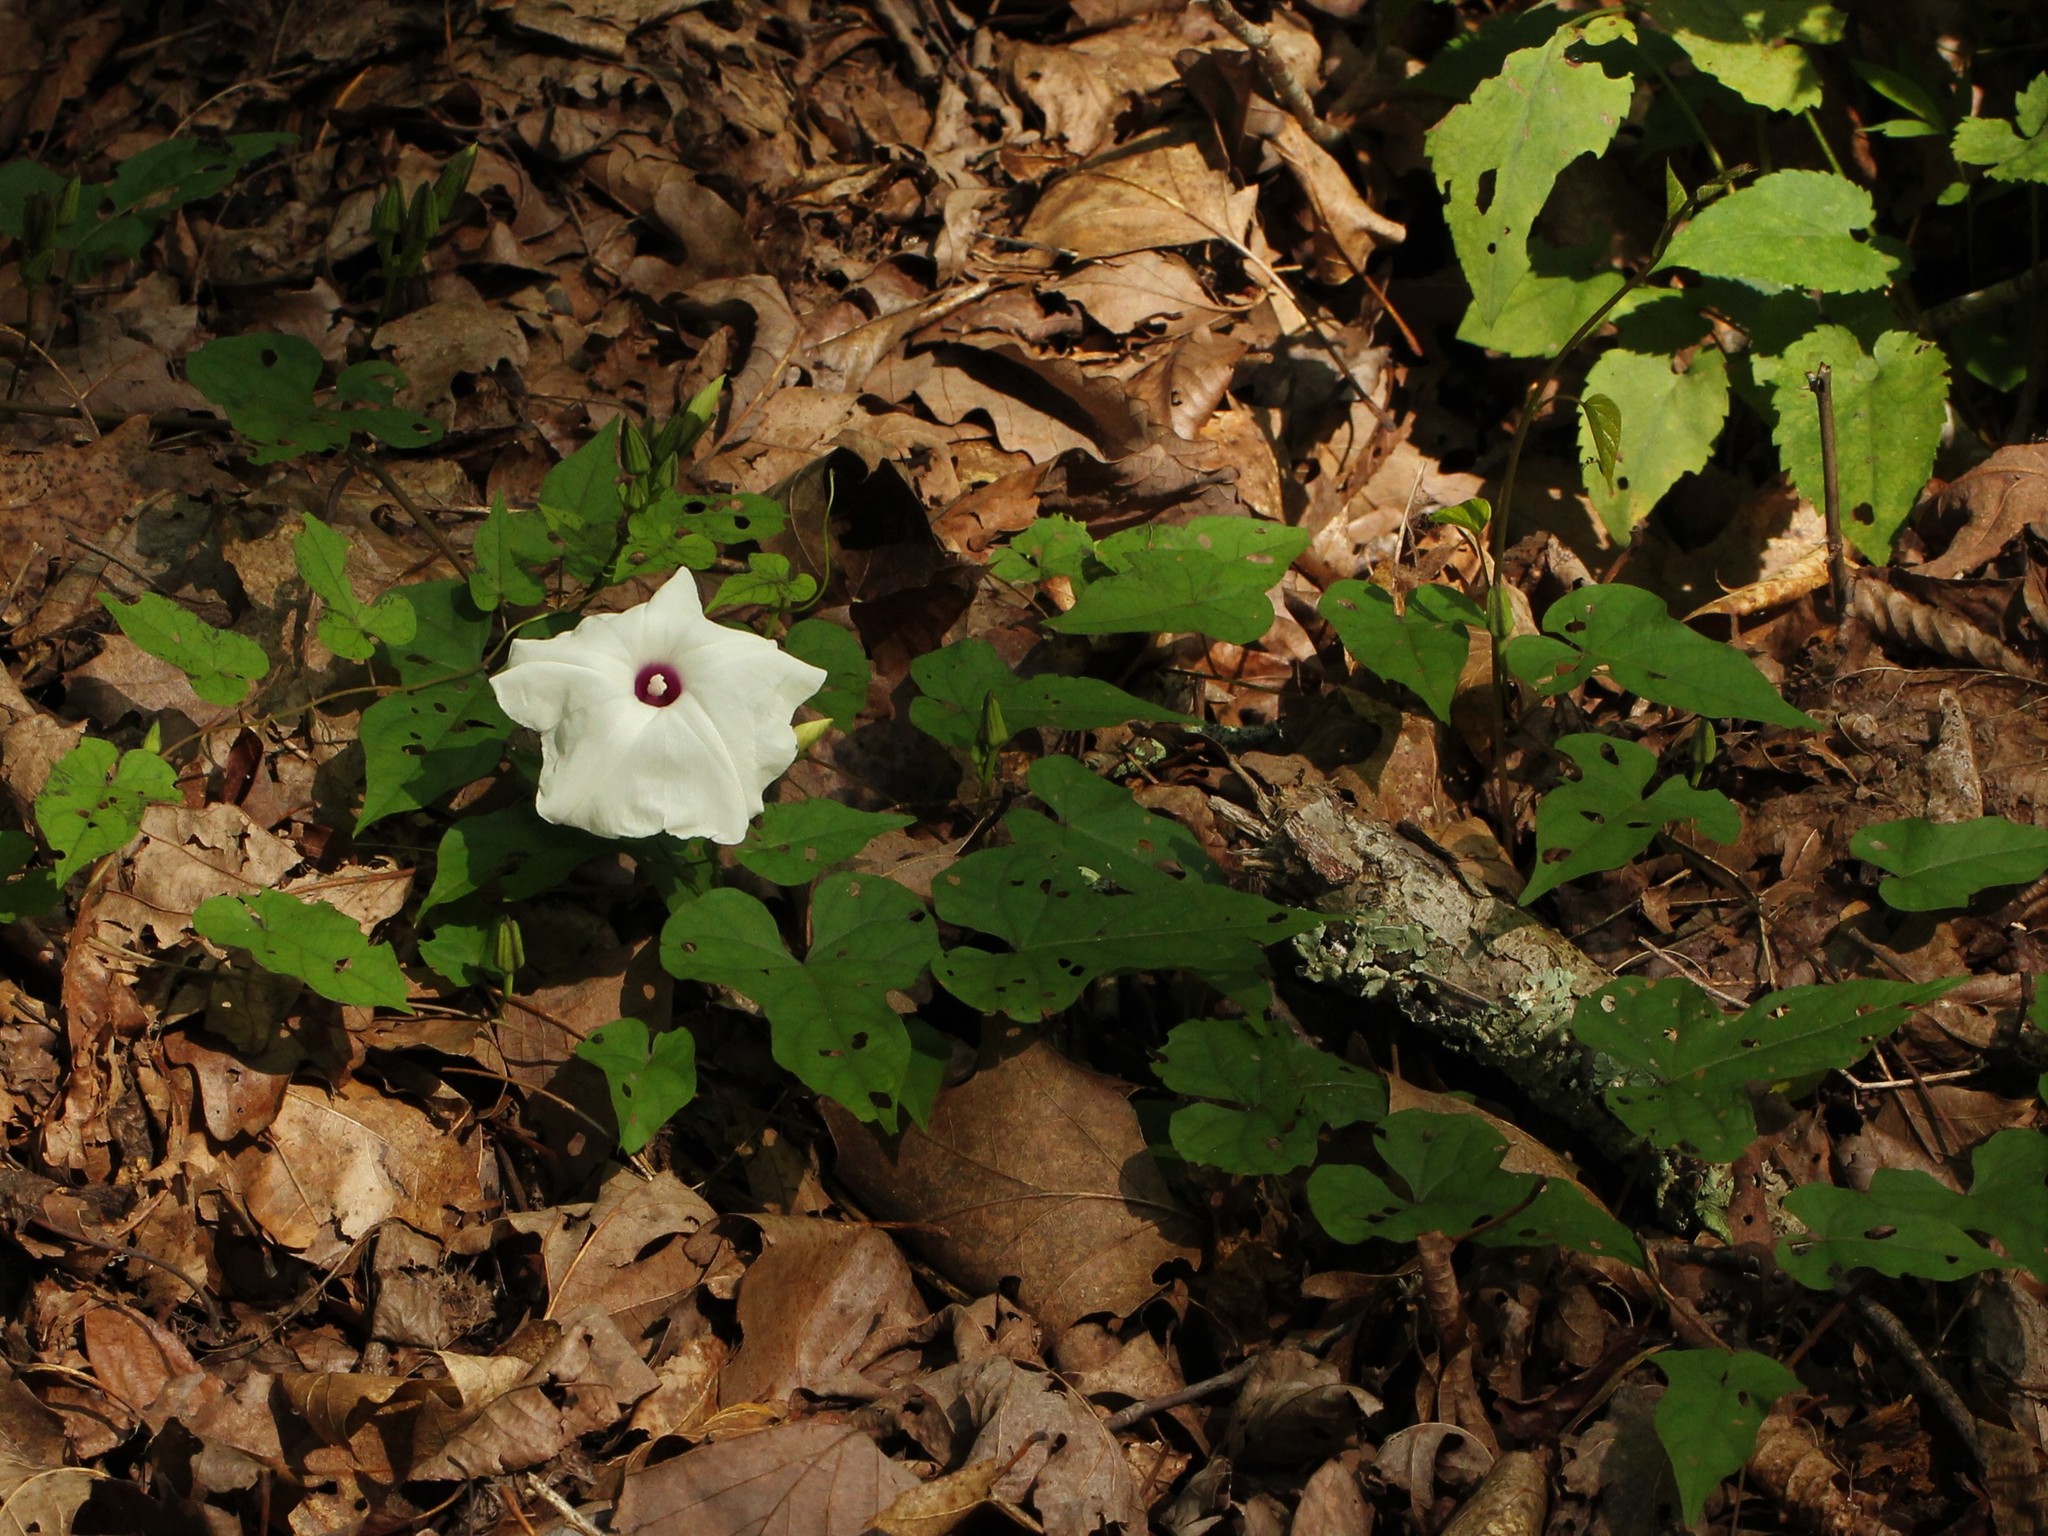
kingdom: Plantae
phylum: Tracheophyta
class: Magnoliopsida
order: Solanales
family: Convolvulaceae
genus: Ipomoea
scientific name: Ipomoea pandurata
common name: Man-of-the-earth
